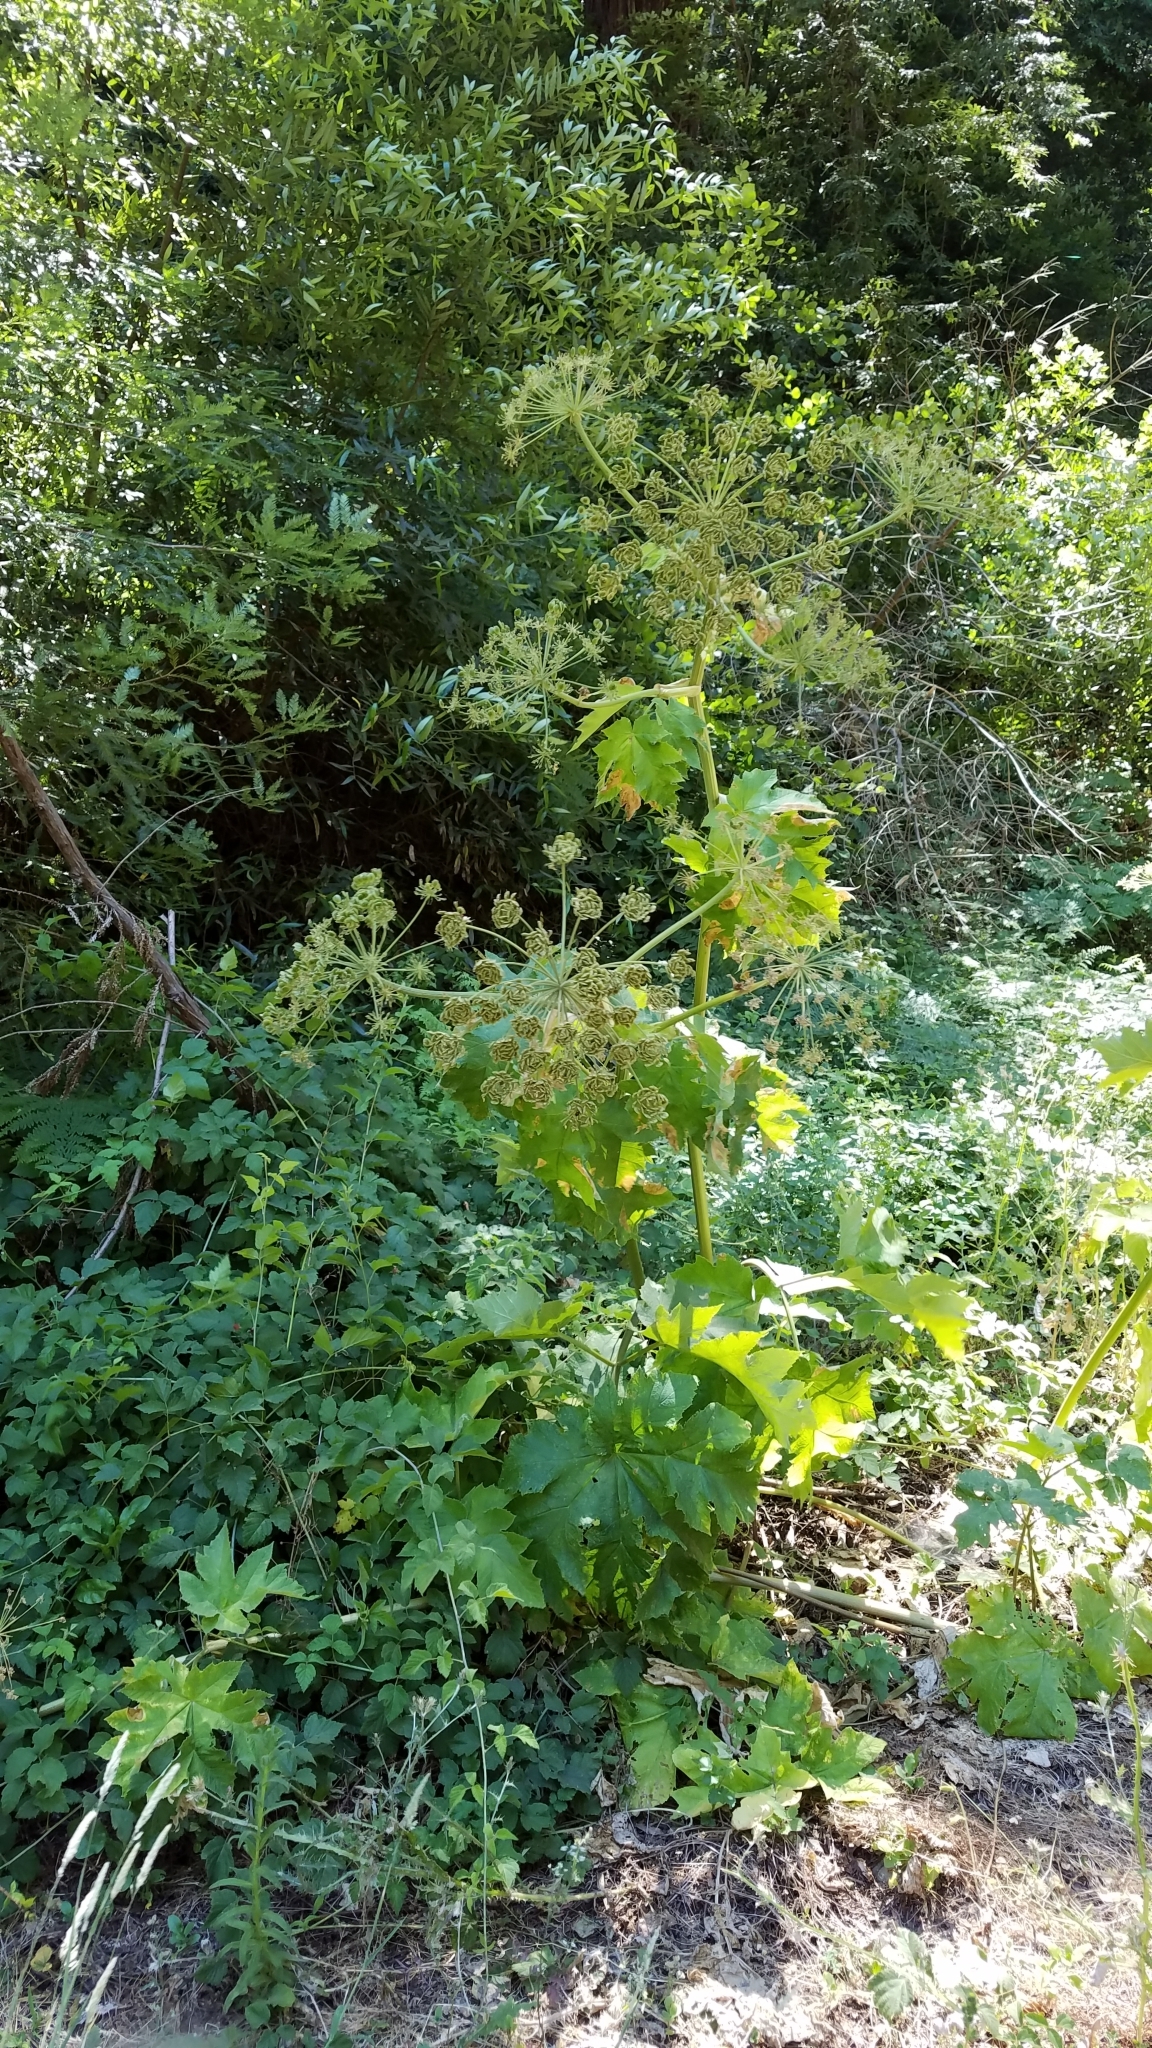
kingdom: Plantae
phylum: Tracheophyta
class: Magnoliopsida
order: Apiales
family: Apiaceae
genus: Heracleum
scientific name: Heracleum maximum
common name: American cow parsnip
